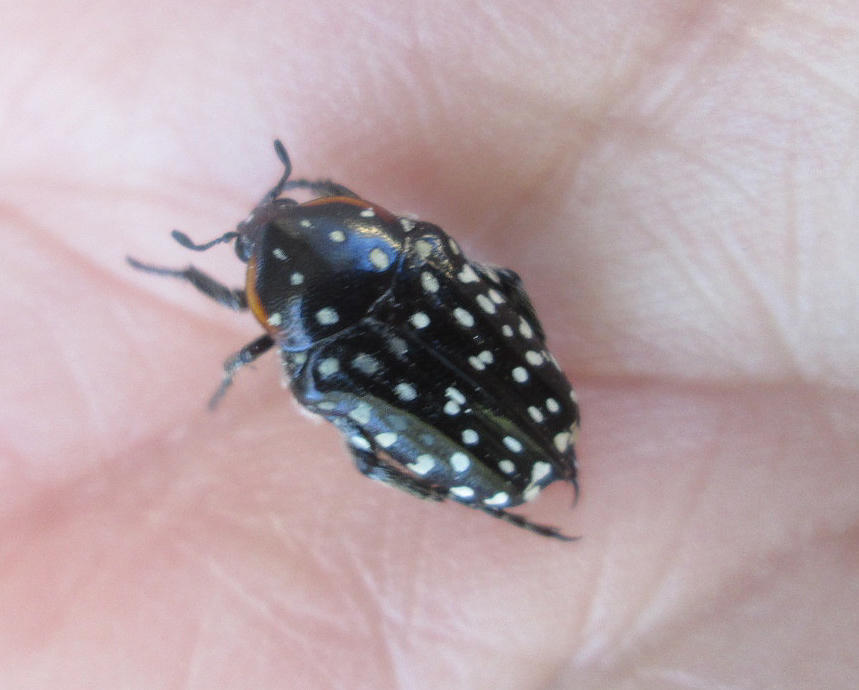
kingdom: Animalia
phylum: Arthropoda
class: Insecta
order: Coleoptera
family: Scarabaeidae
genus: Oxythyrea
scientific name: Oxythyrea
